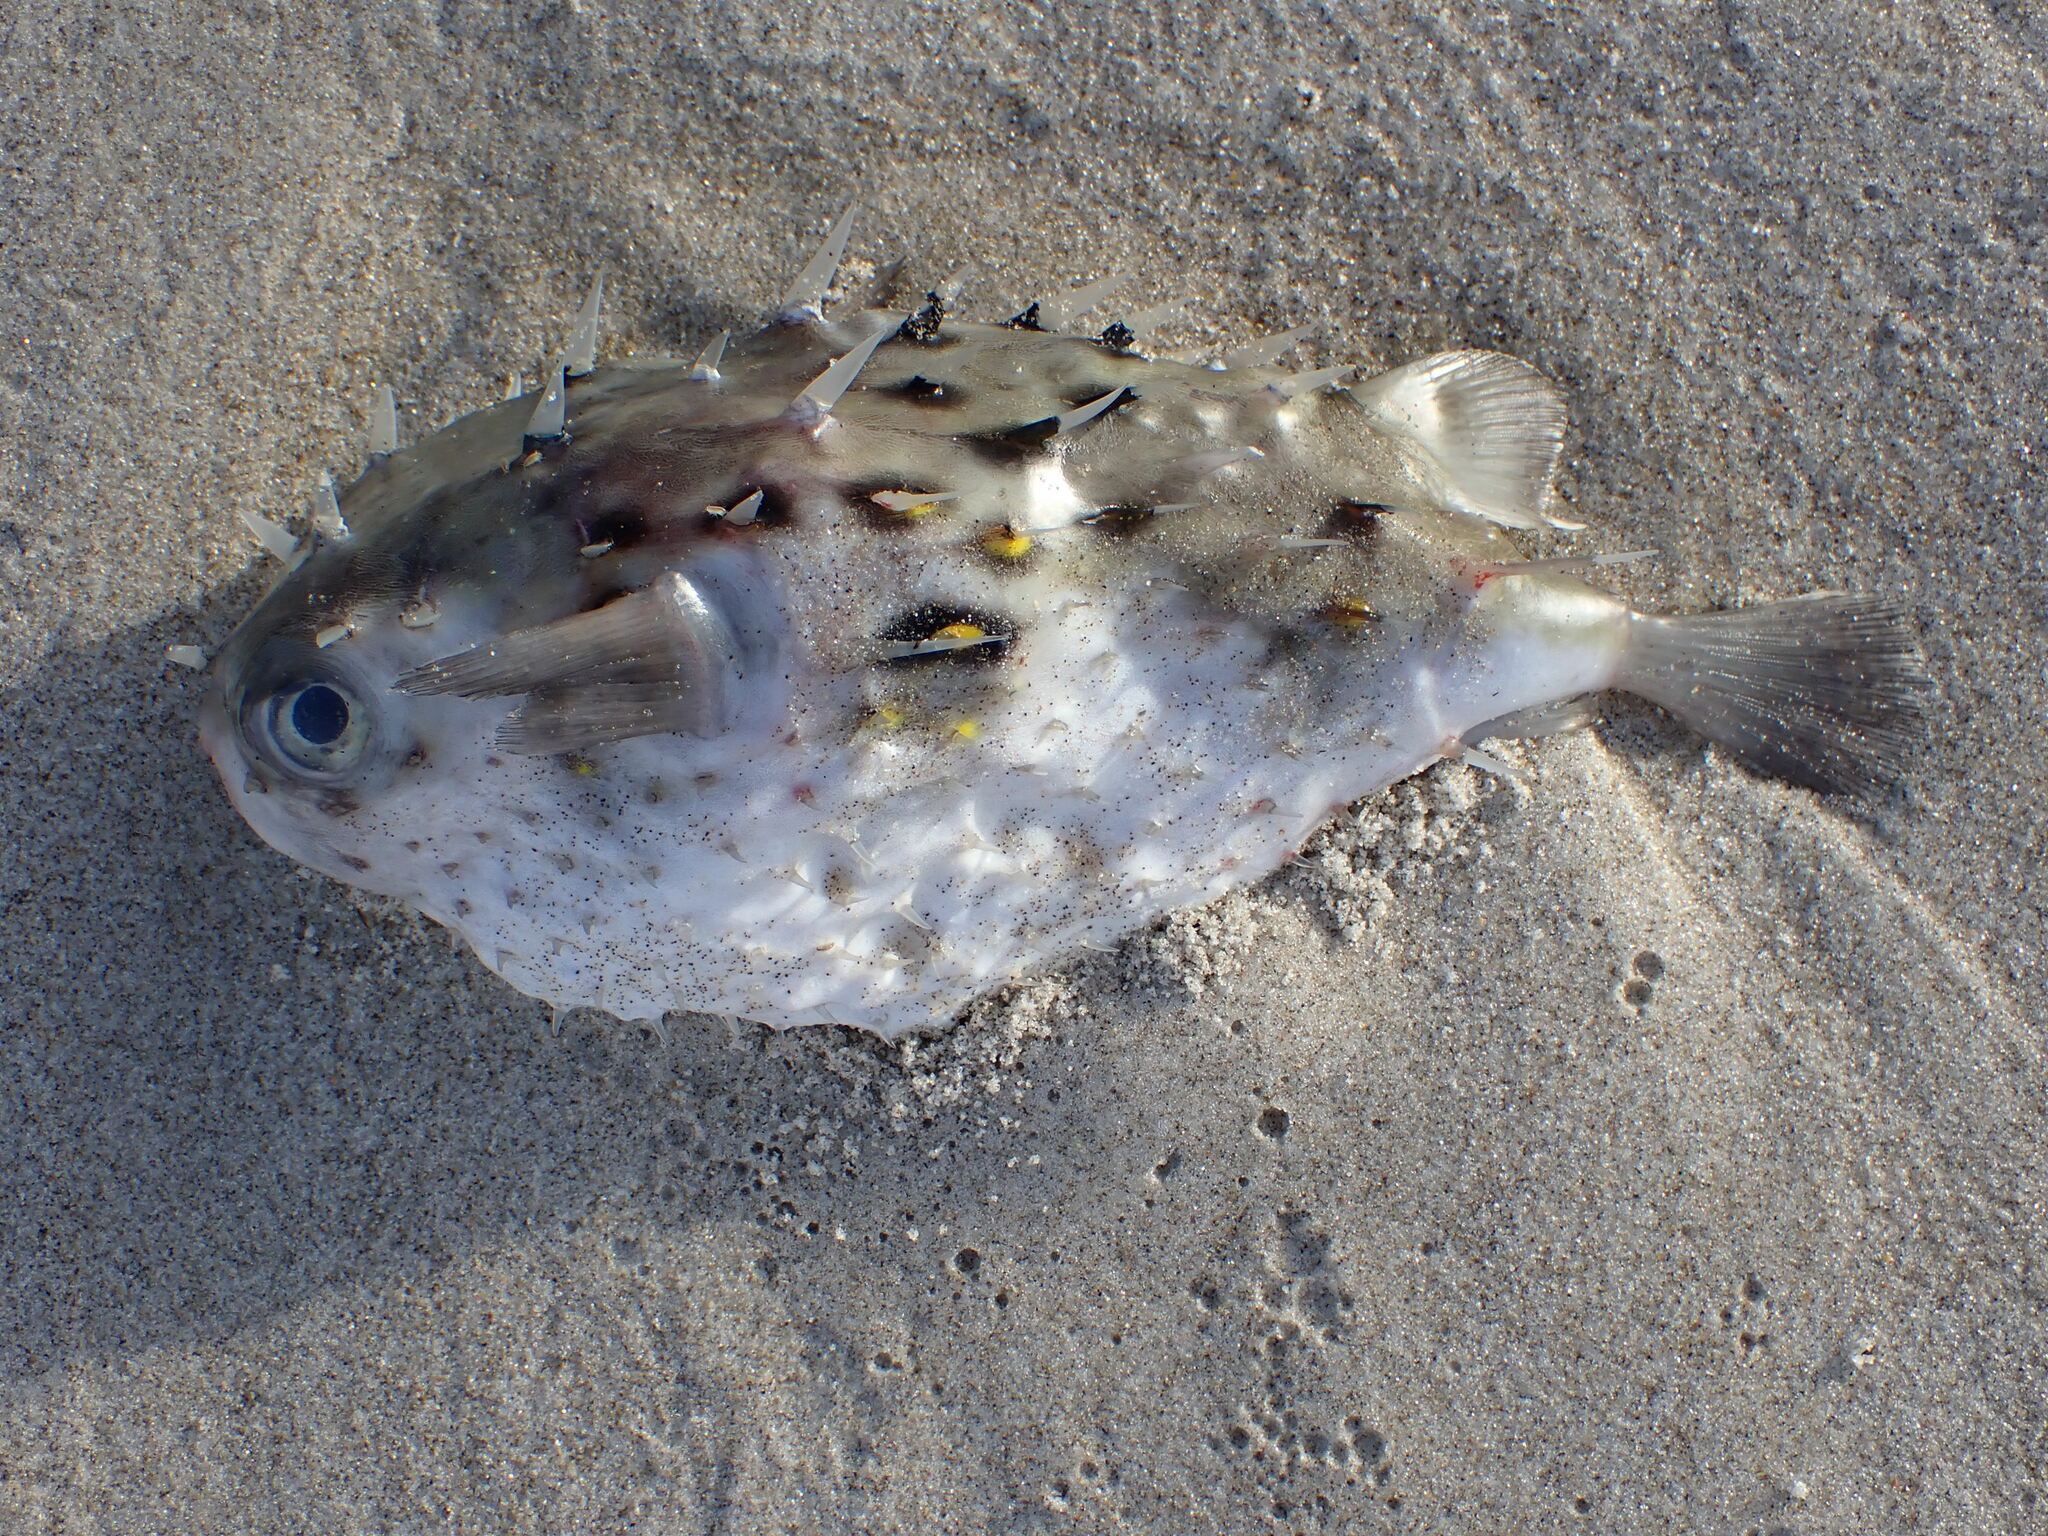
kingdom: Animalia
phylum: Chordata
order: Tetraodontiformes
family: Diodontidae
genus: Allomycterus
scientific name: Allomycterus pilatus
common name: No common name
